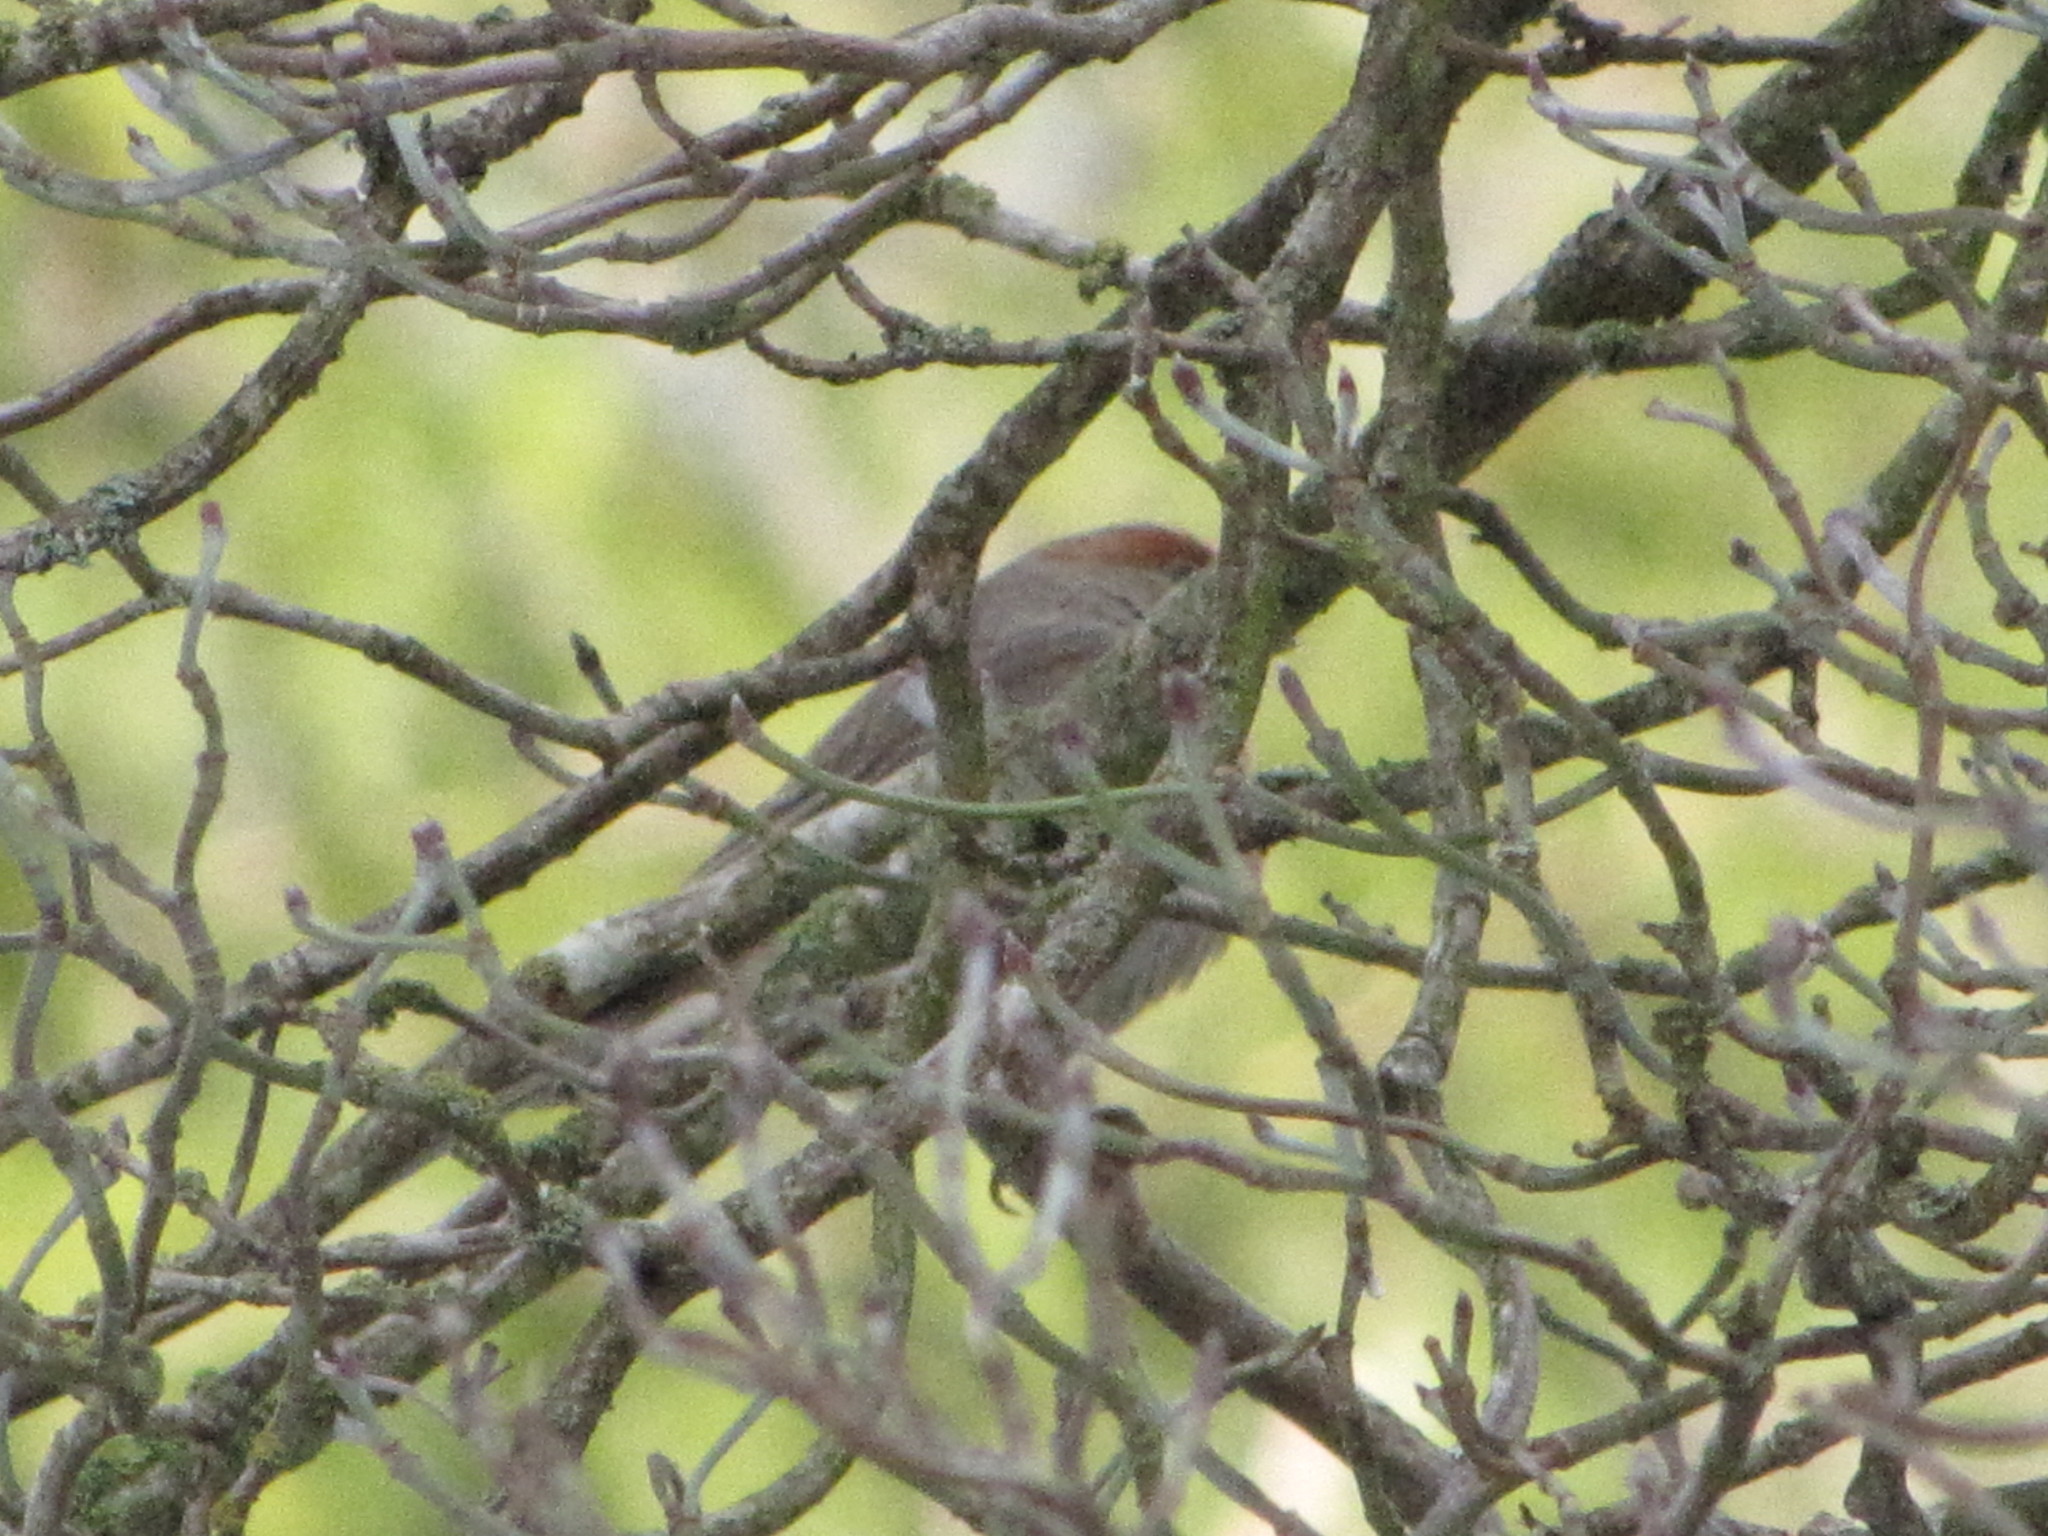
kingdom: Animalia
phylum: Chordata
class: Aves
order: Passeriformes
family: Fringillidae
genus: Haemorhous
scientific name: Haemorhous mexicanus
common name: House finch
